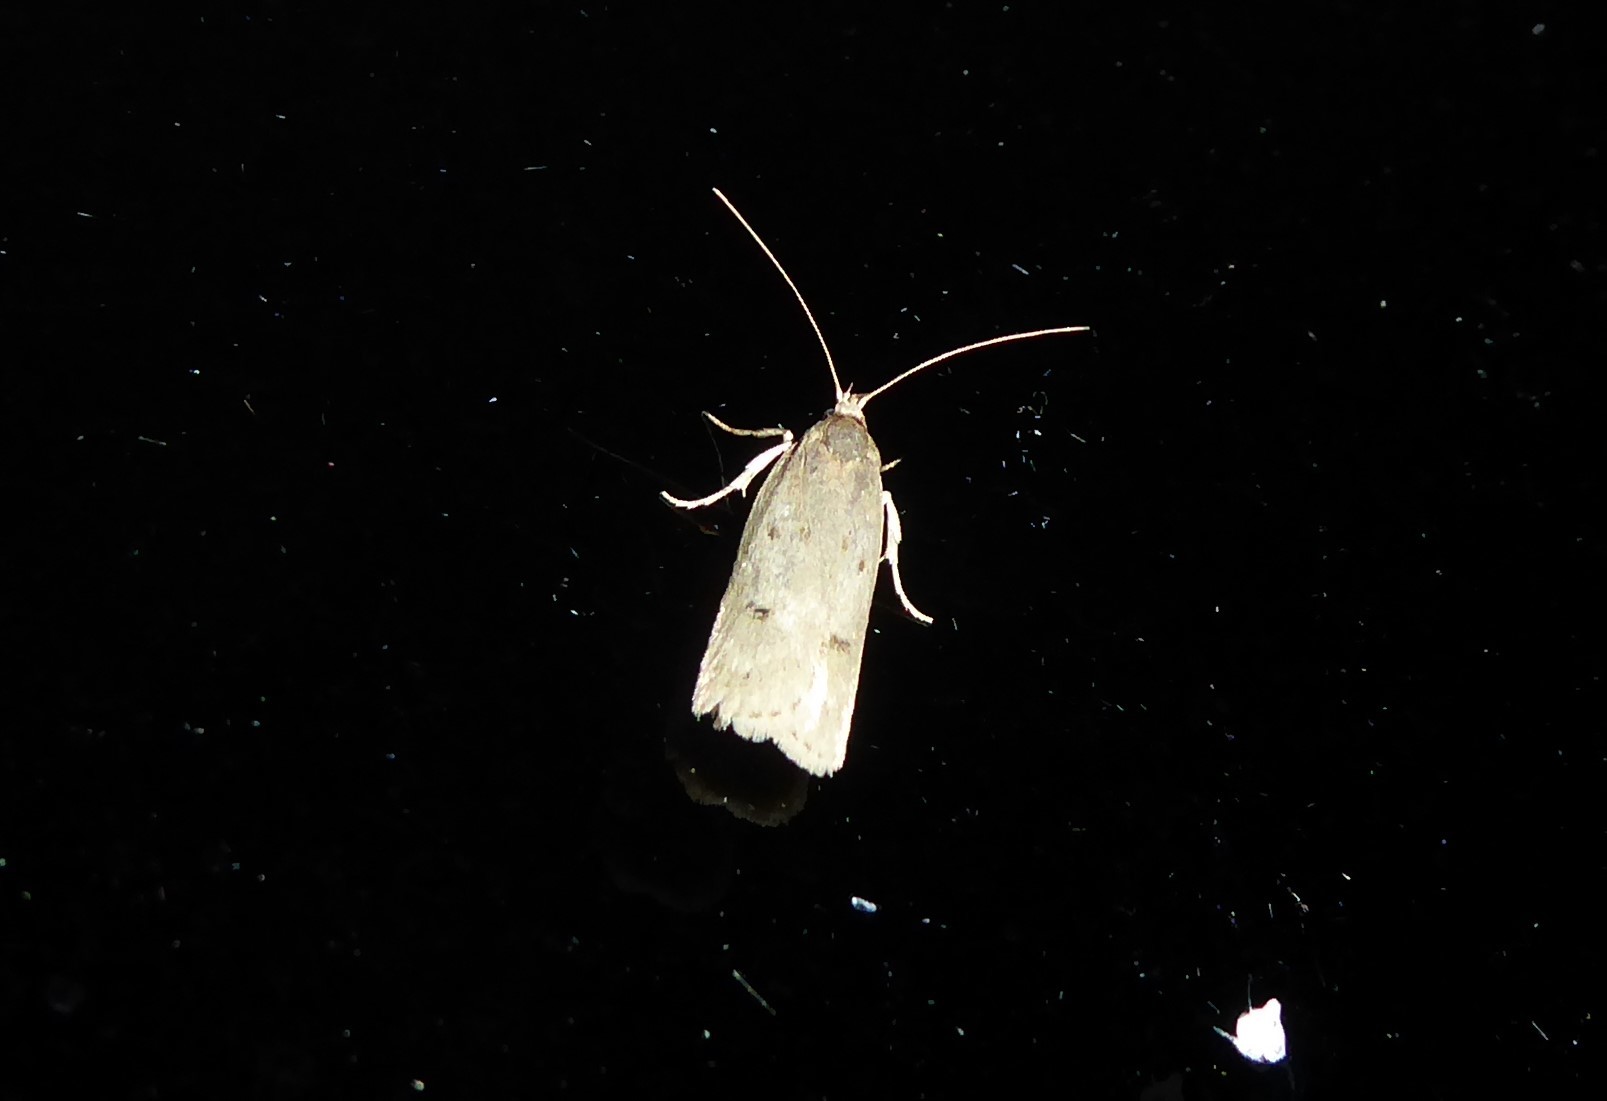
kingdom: Animalia
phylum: Arthropoda
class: Insecta
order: Lepidoptera
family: Depressariidae
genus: Phaeosaces
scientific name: Phaeosaces apocrypta
